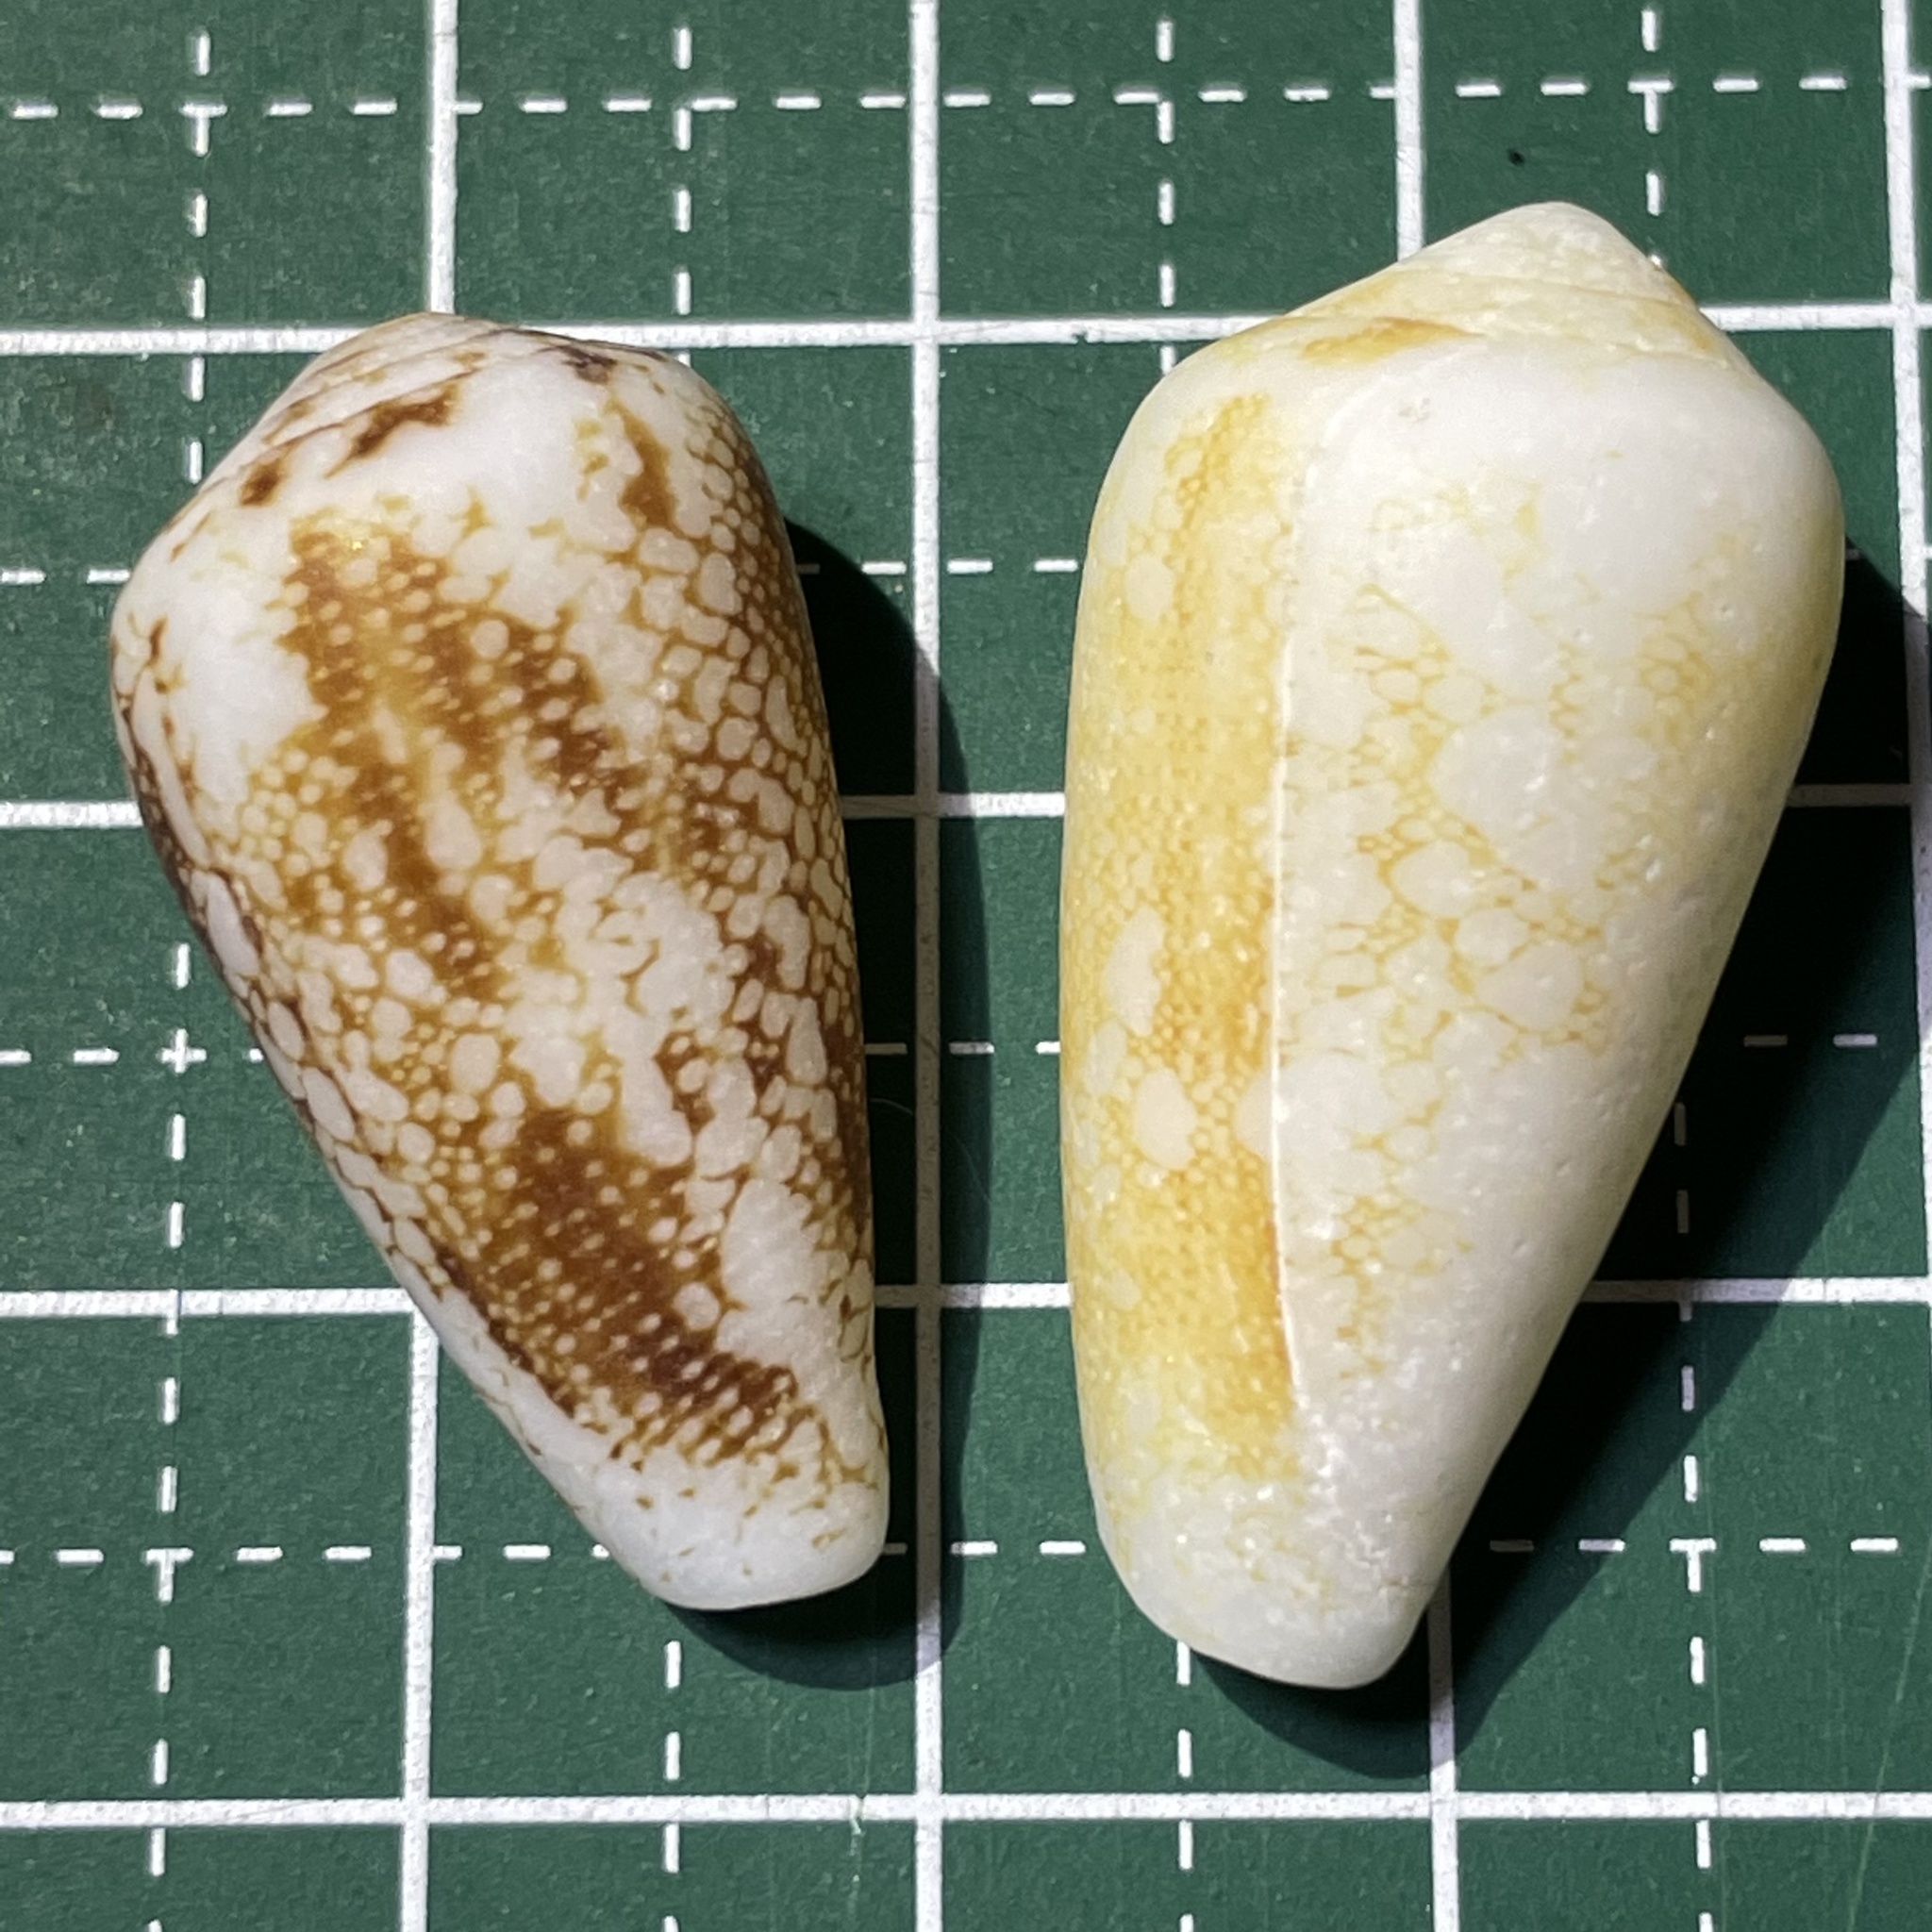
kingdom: Animalia
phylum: Mollusca
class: Gastropoda
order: Neogastropoda
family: Conidae
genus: Conus
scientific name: Conus omaria
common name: Omaria cone
